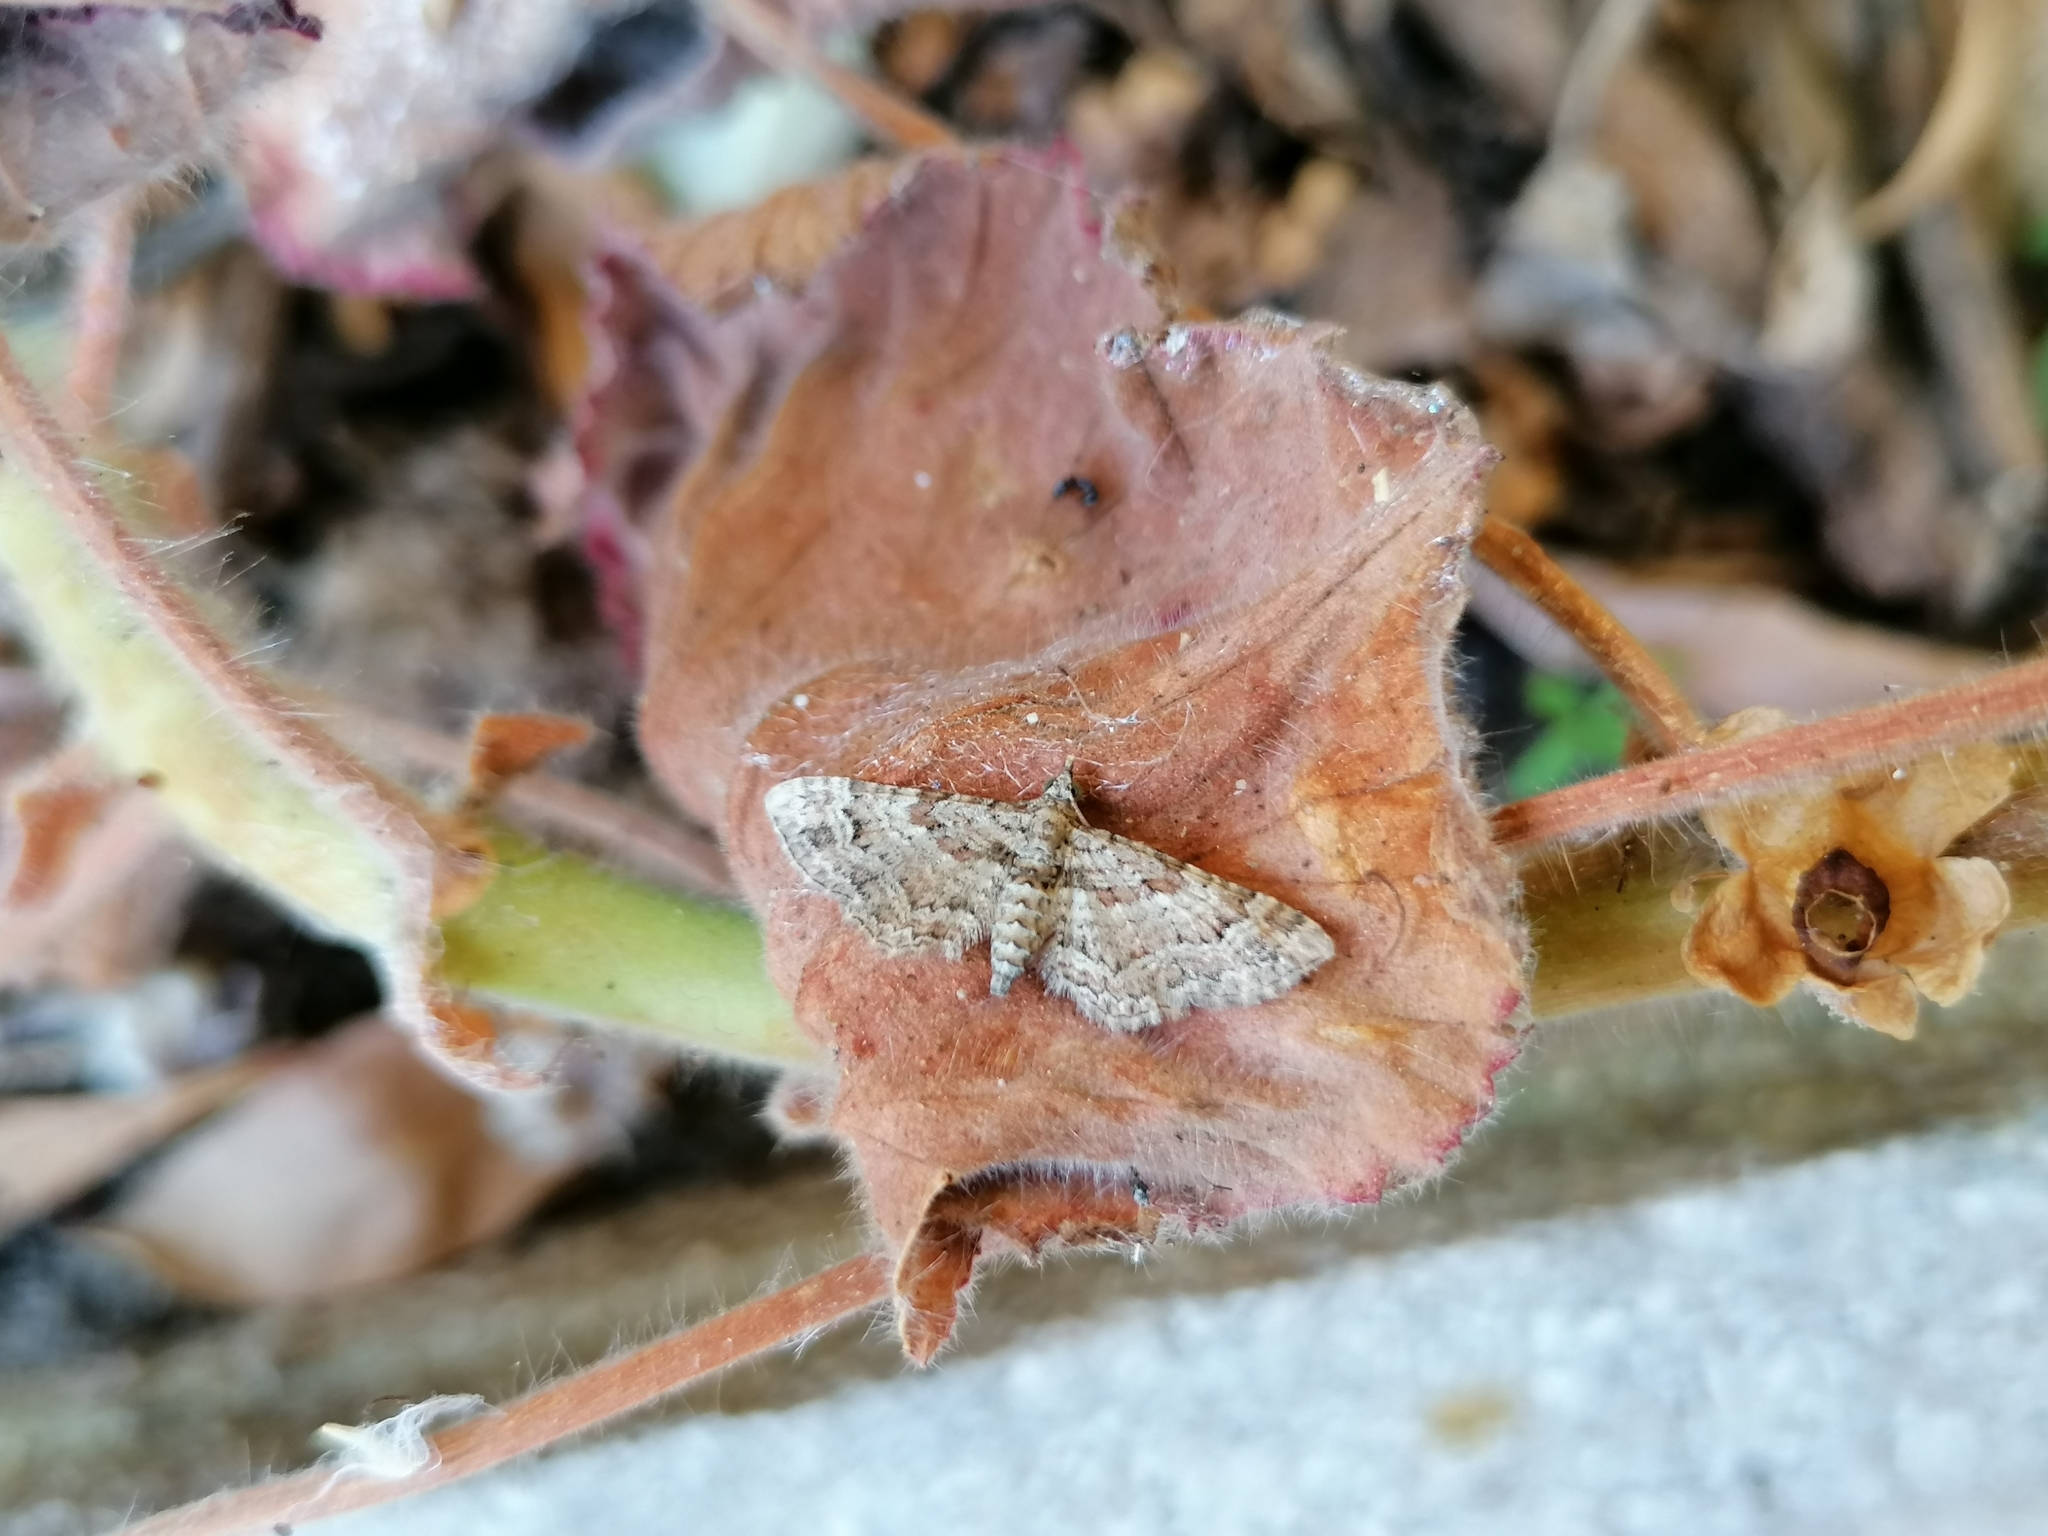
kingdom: Animalia
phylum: Arthropoda
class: Insecta
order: Lepidoptera
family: Geometridae
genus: Gymnoscelis
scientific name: Gymnoscelis rufifasciata
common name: Double-striped pug
